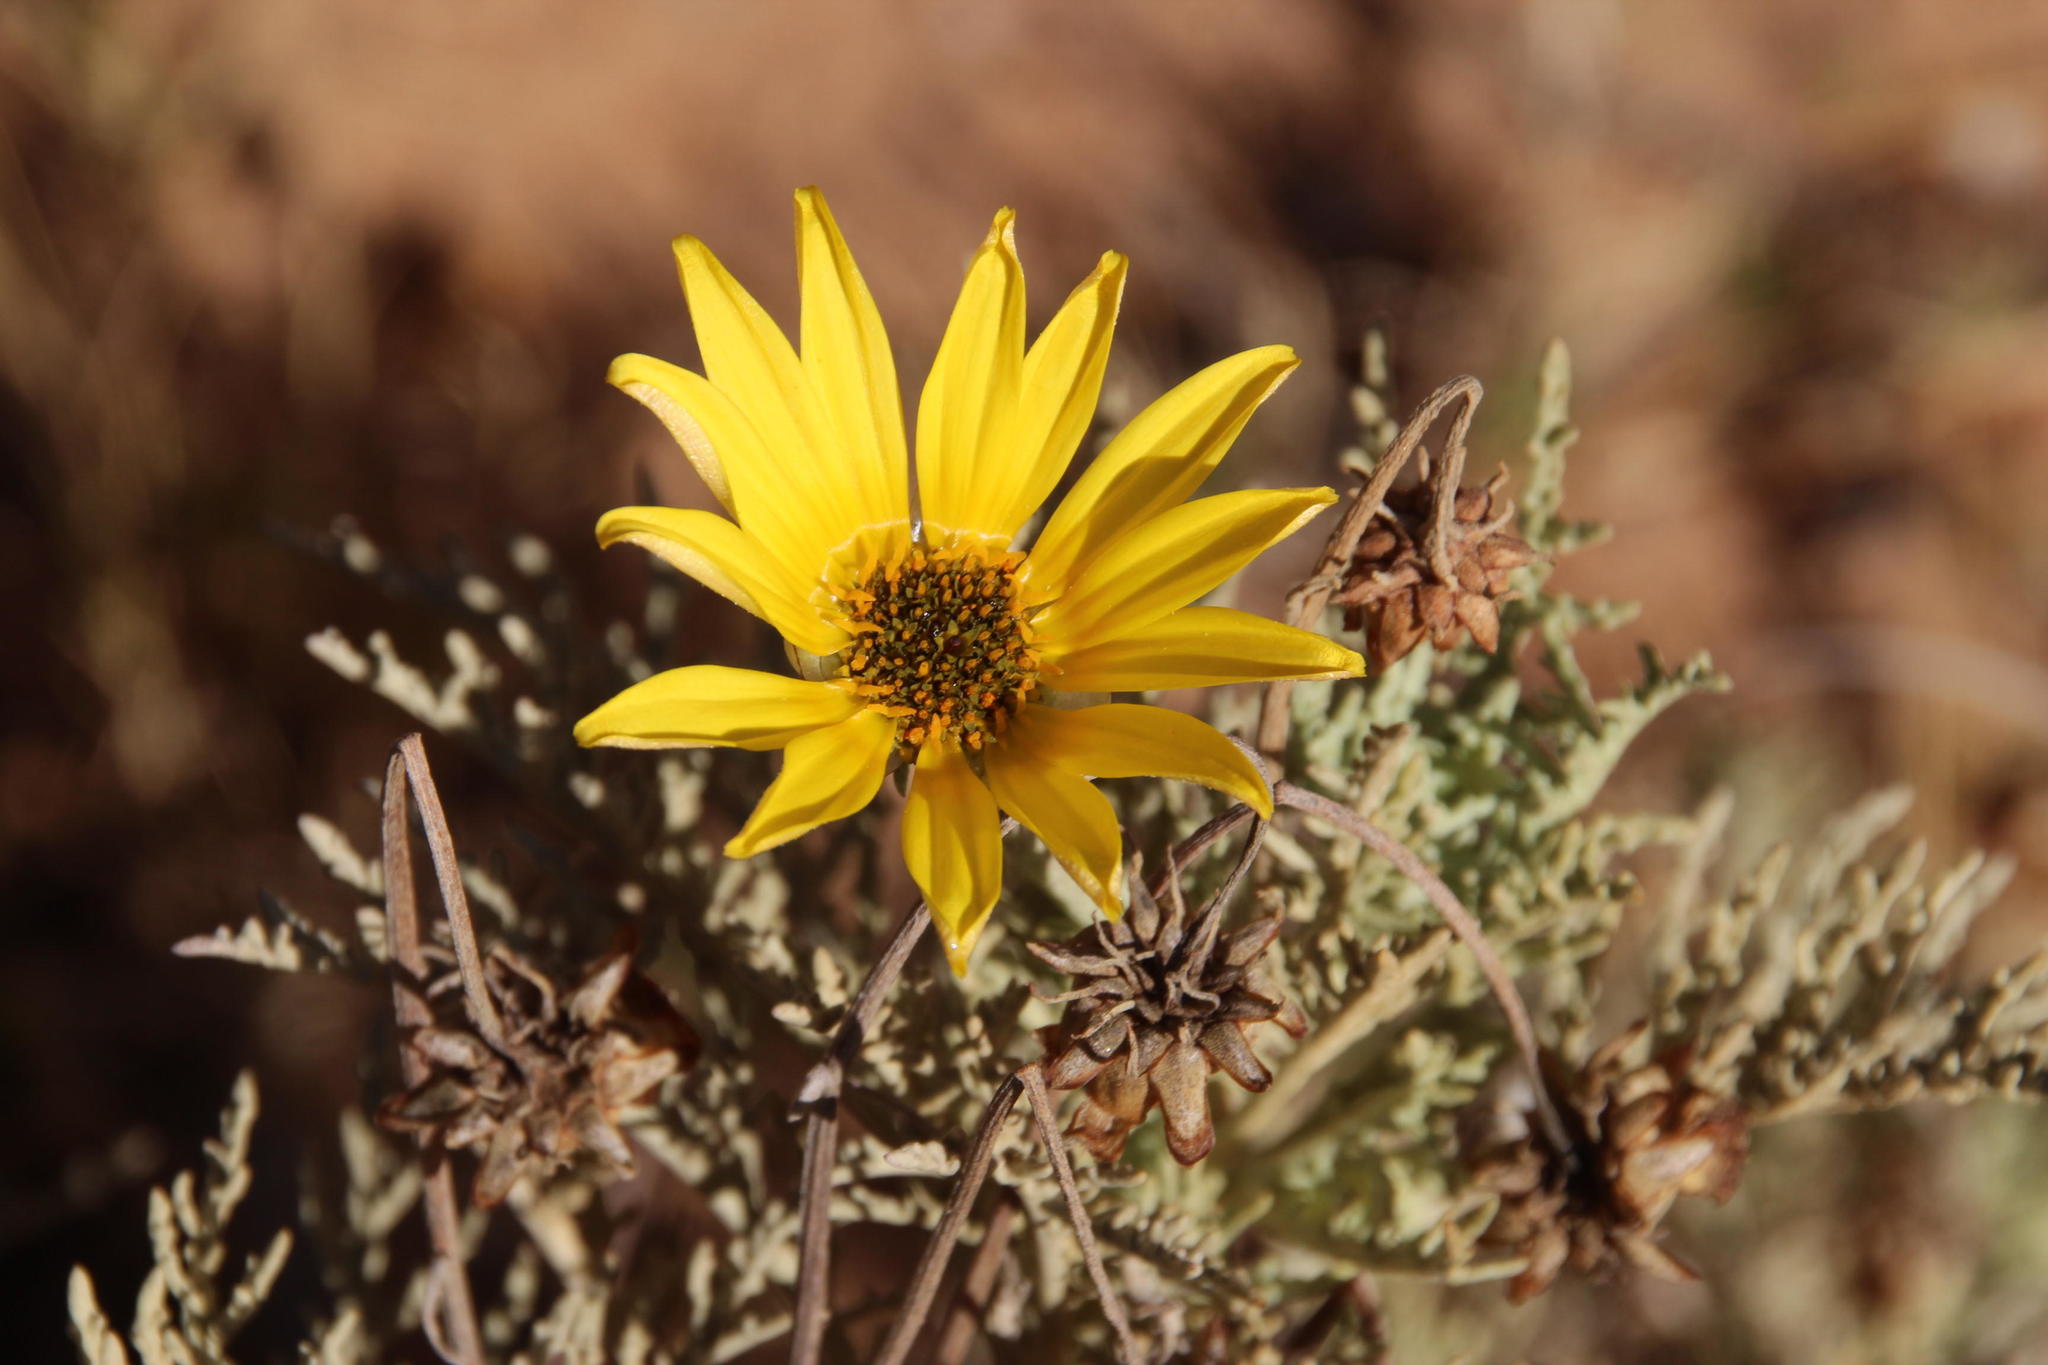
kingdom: Plantae
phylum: Tracheophyta
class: Magnoliopsida
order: Asterales
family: Asteraceae
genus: Arctotis
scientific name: Arctotis laciniata
